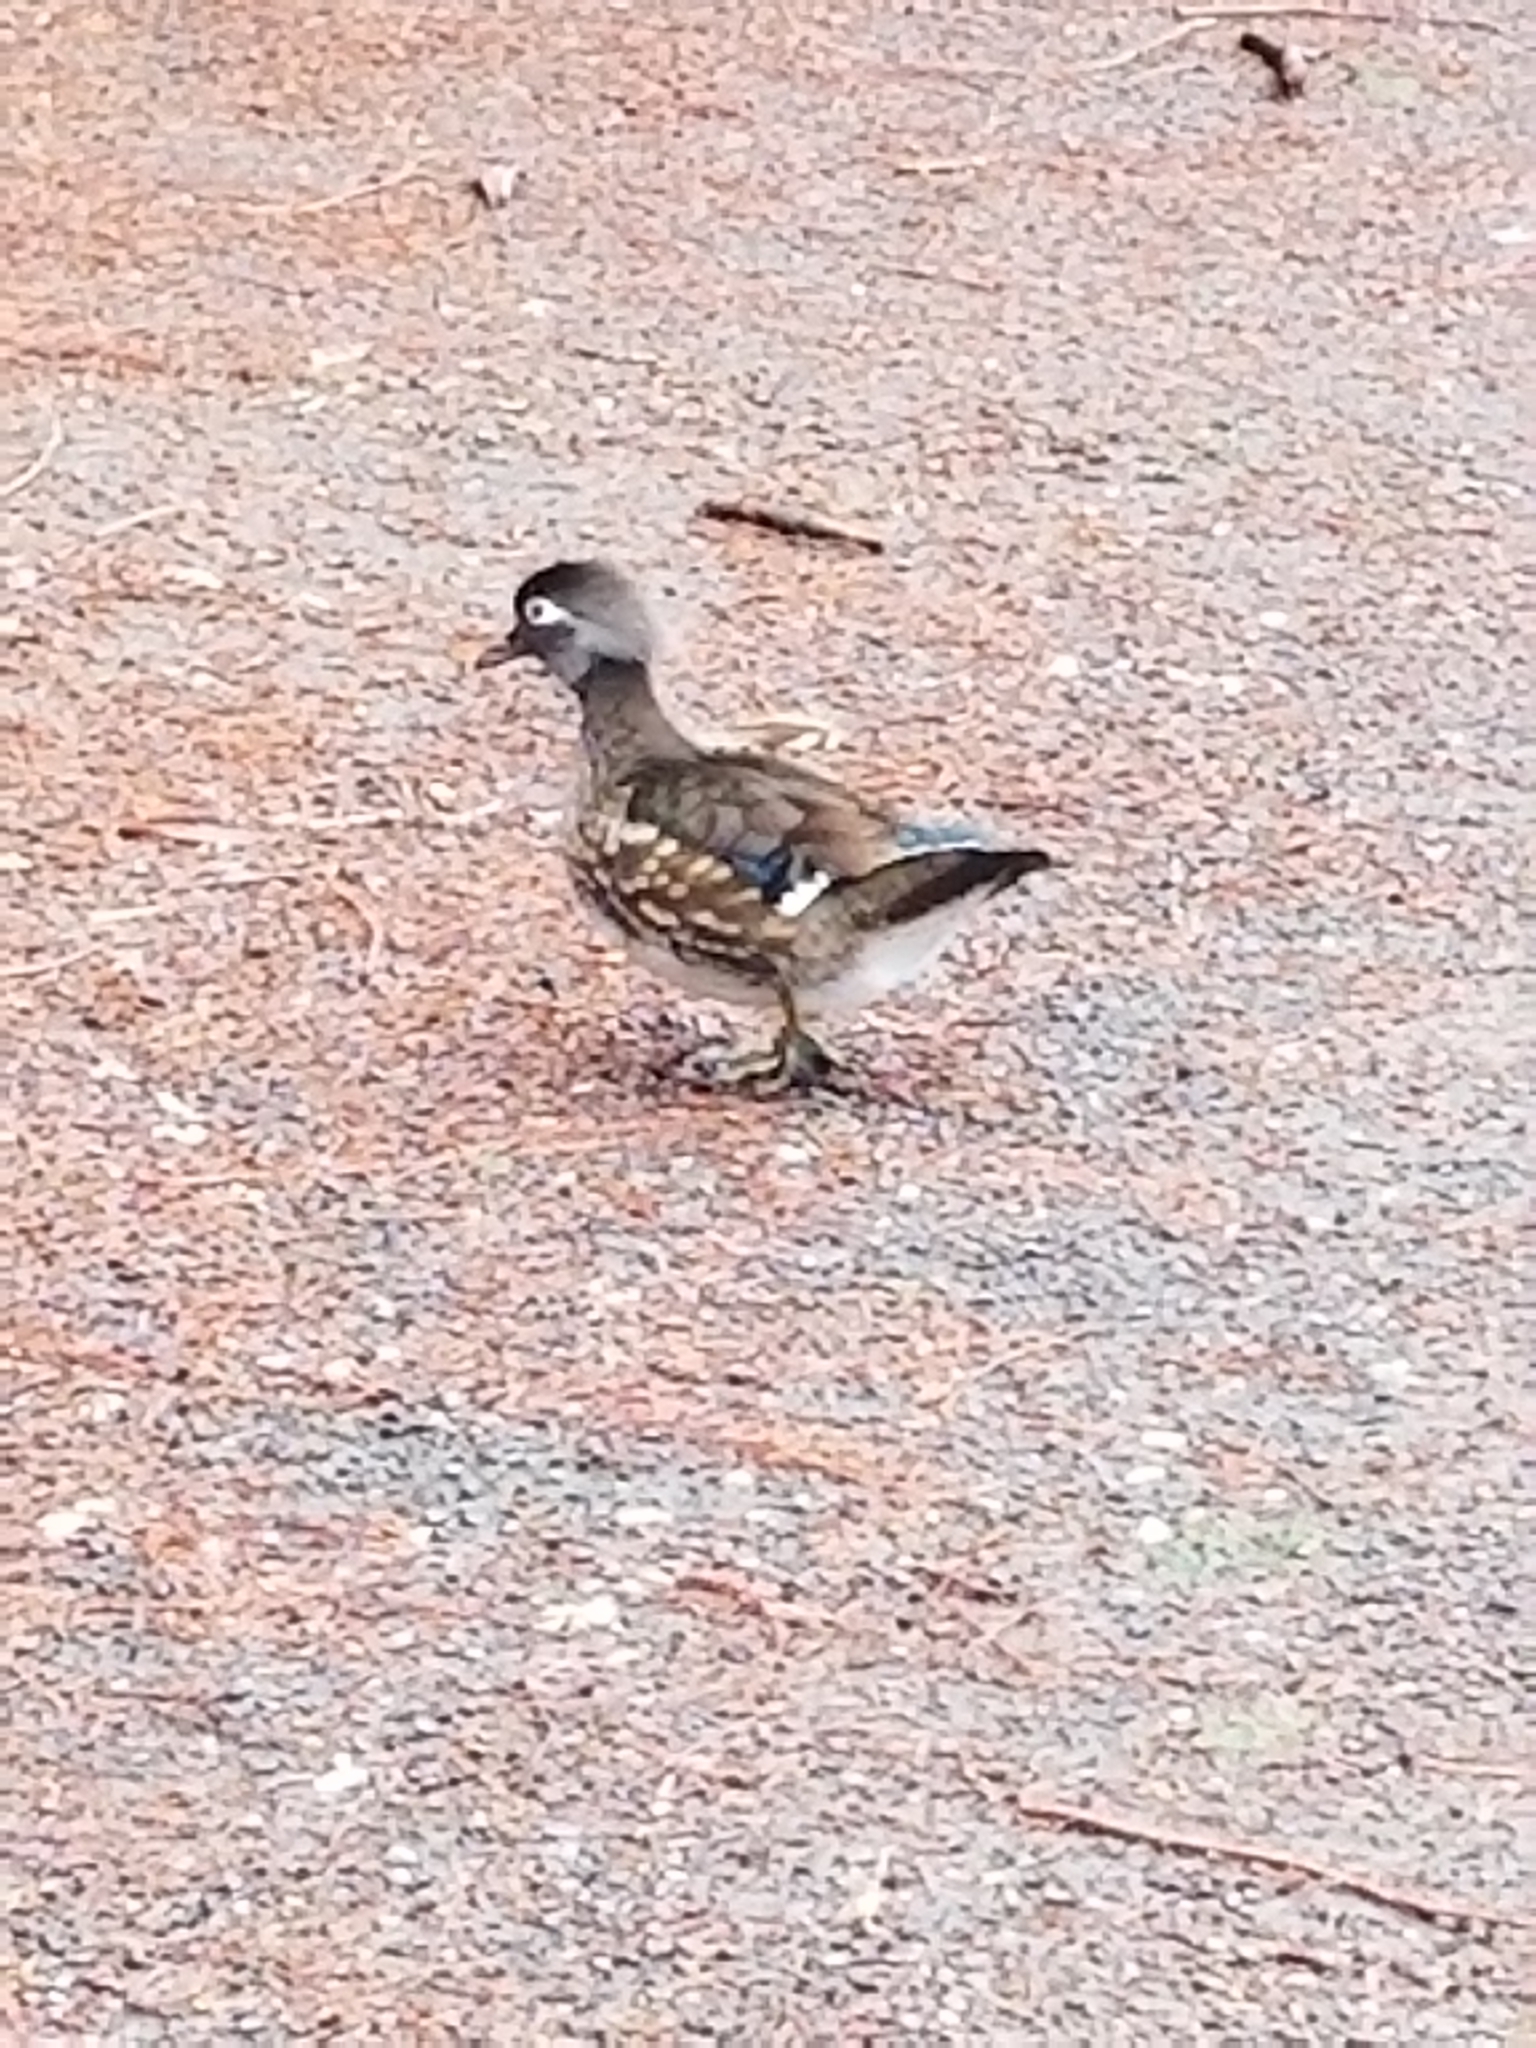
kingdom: Animalia
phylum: Chordata
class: Aves
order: Anseriformes
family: Anatidae
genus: Aix
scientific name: Aix sponsa
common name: Wood duck
